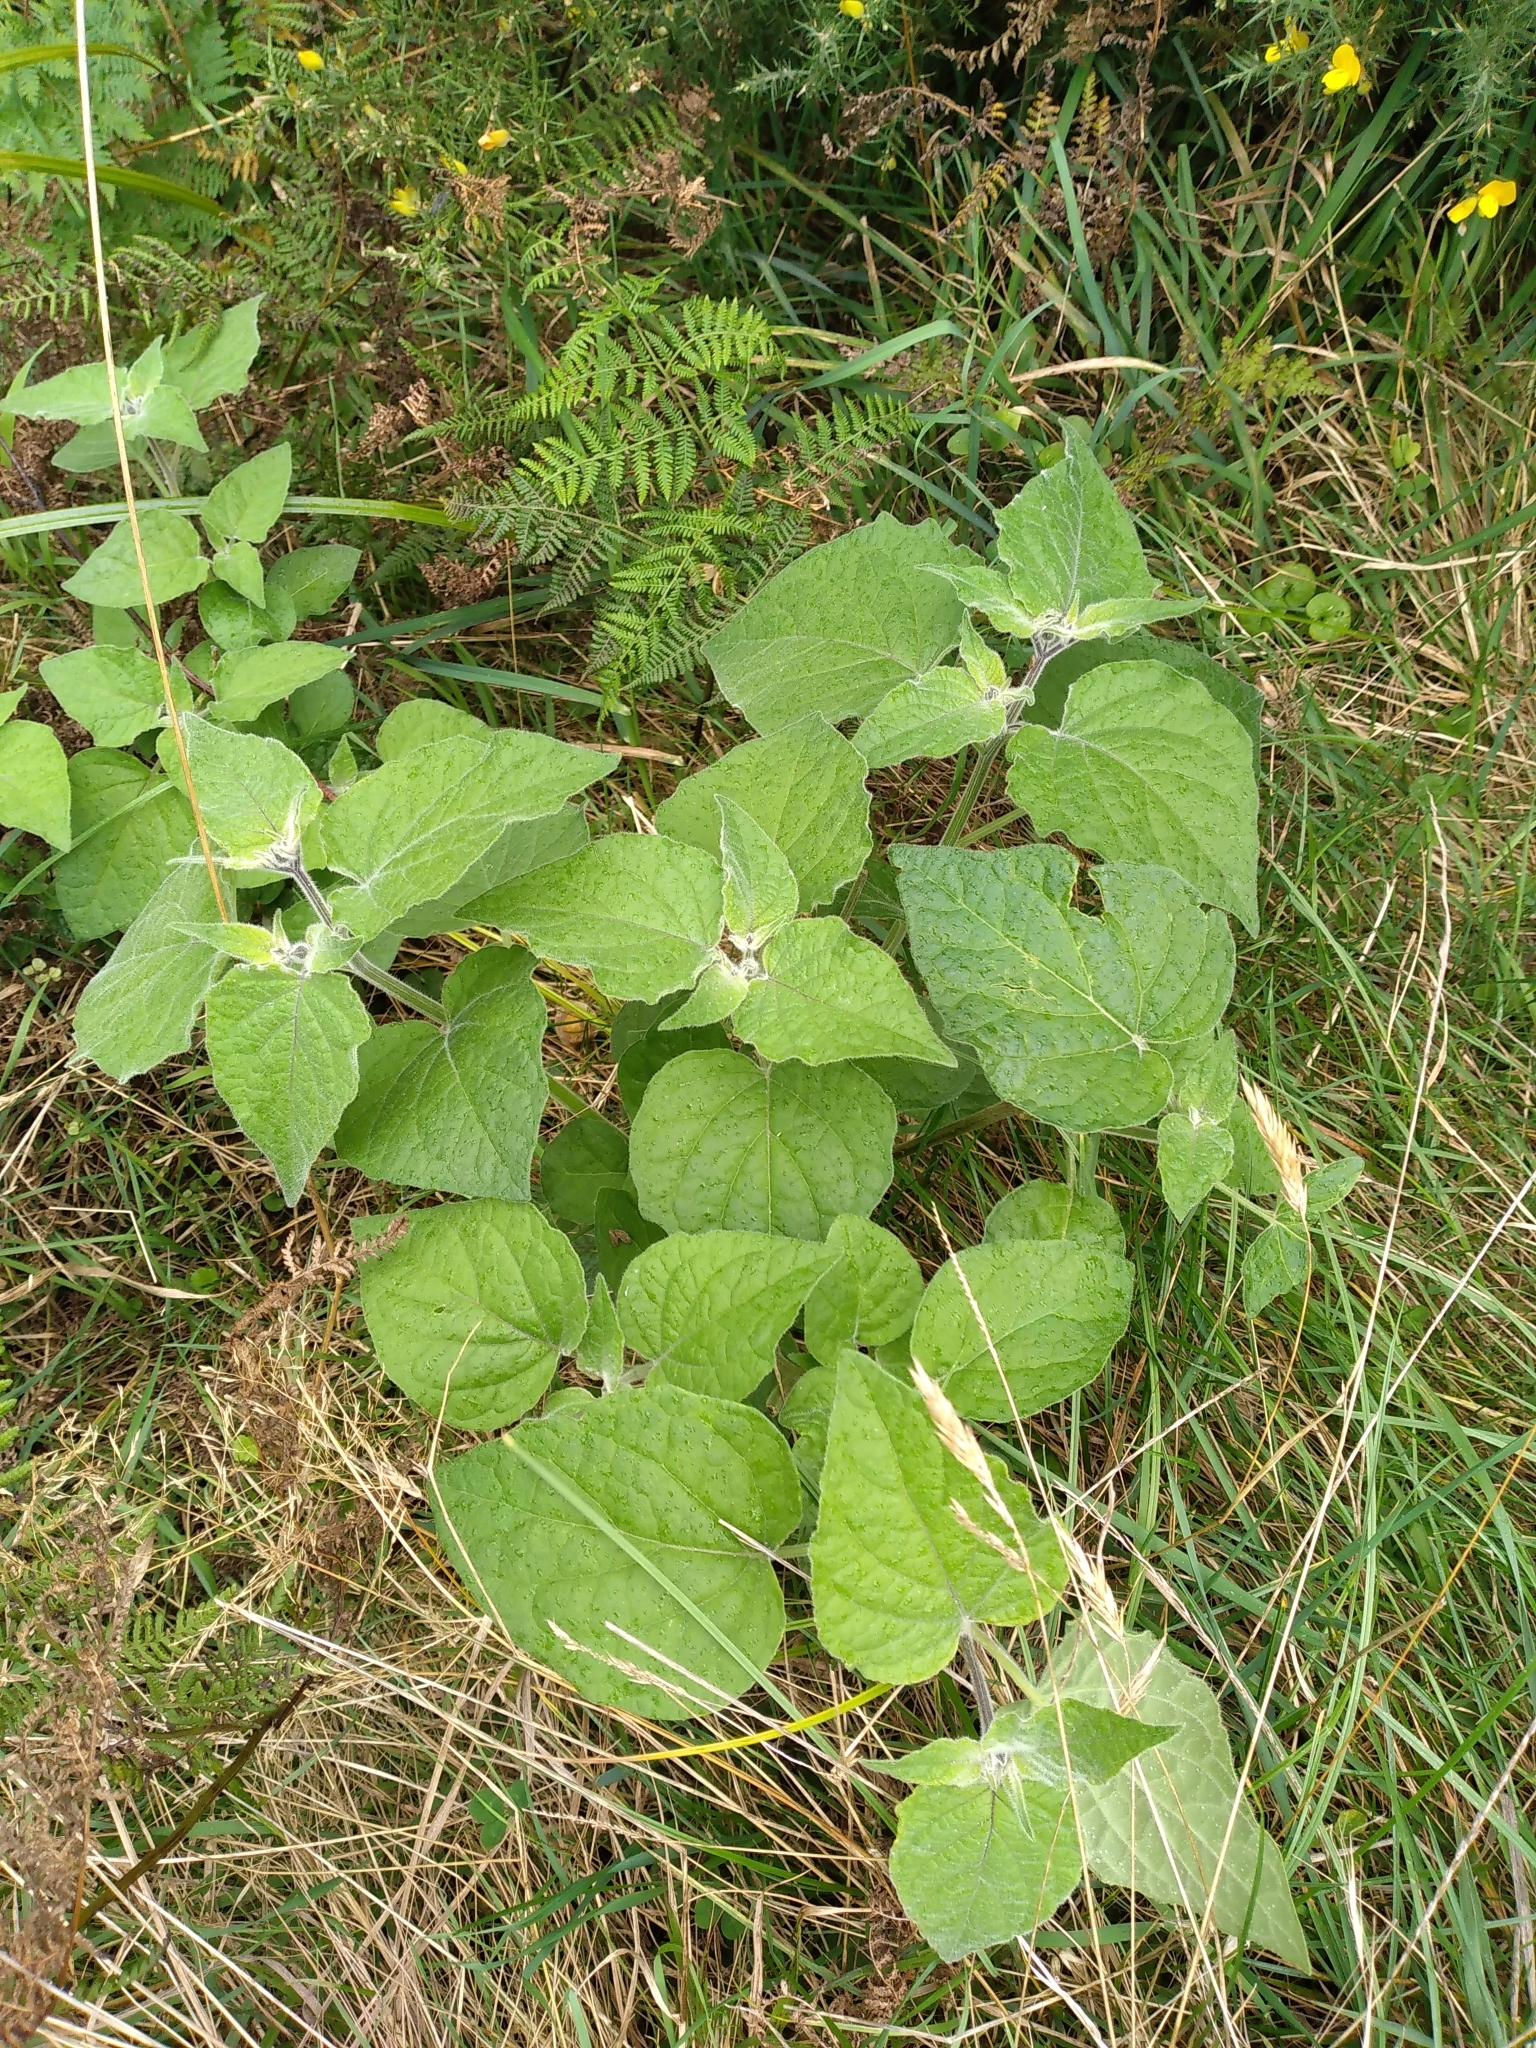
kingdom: Plantae
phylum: Tracheophyta
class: Magnoliopsida
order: Solanales
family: Solanaceae
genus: Physalis
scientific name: Physalis peruviana
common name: Cape-gooseberry
